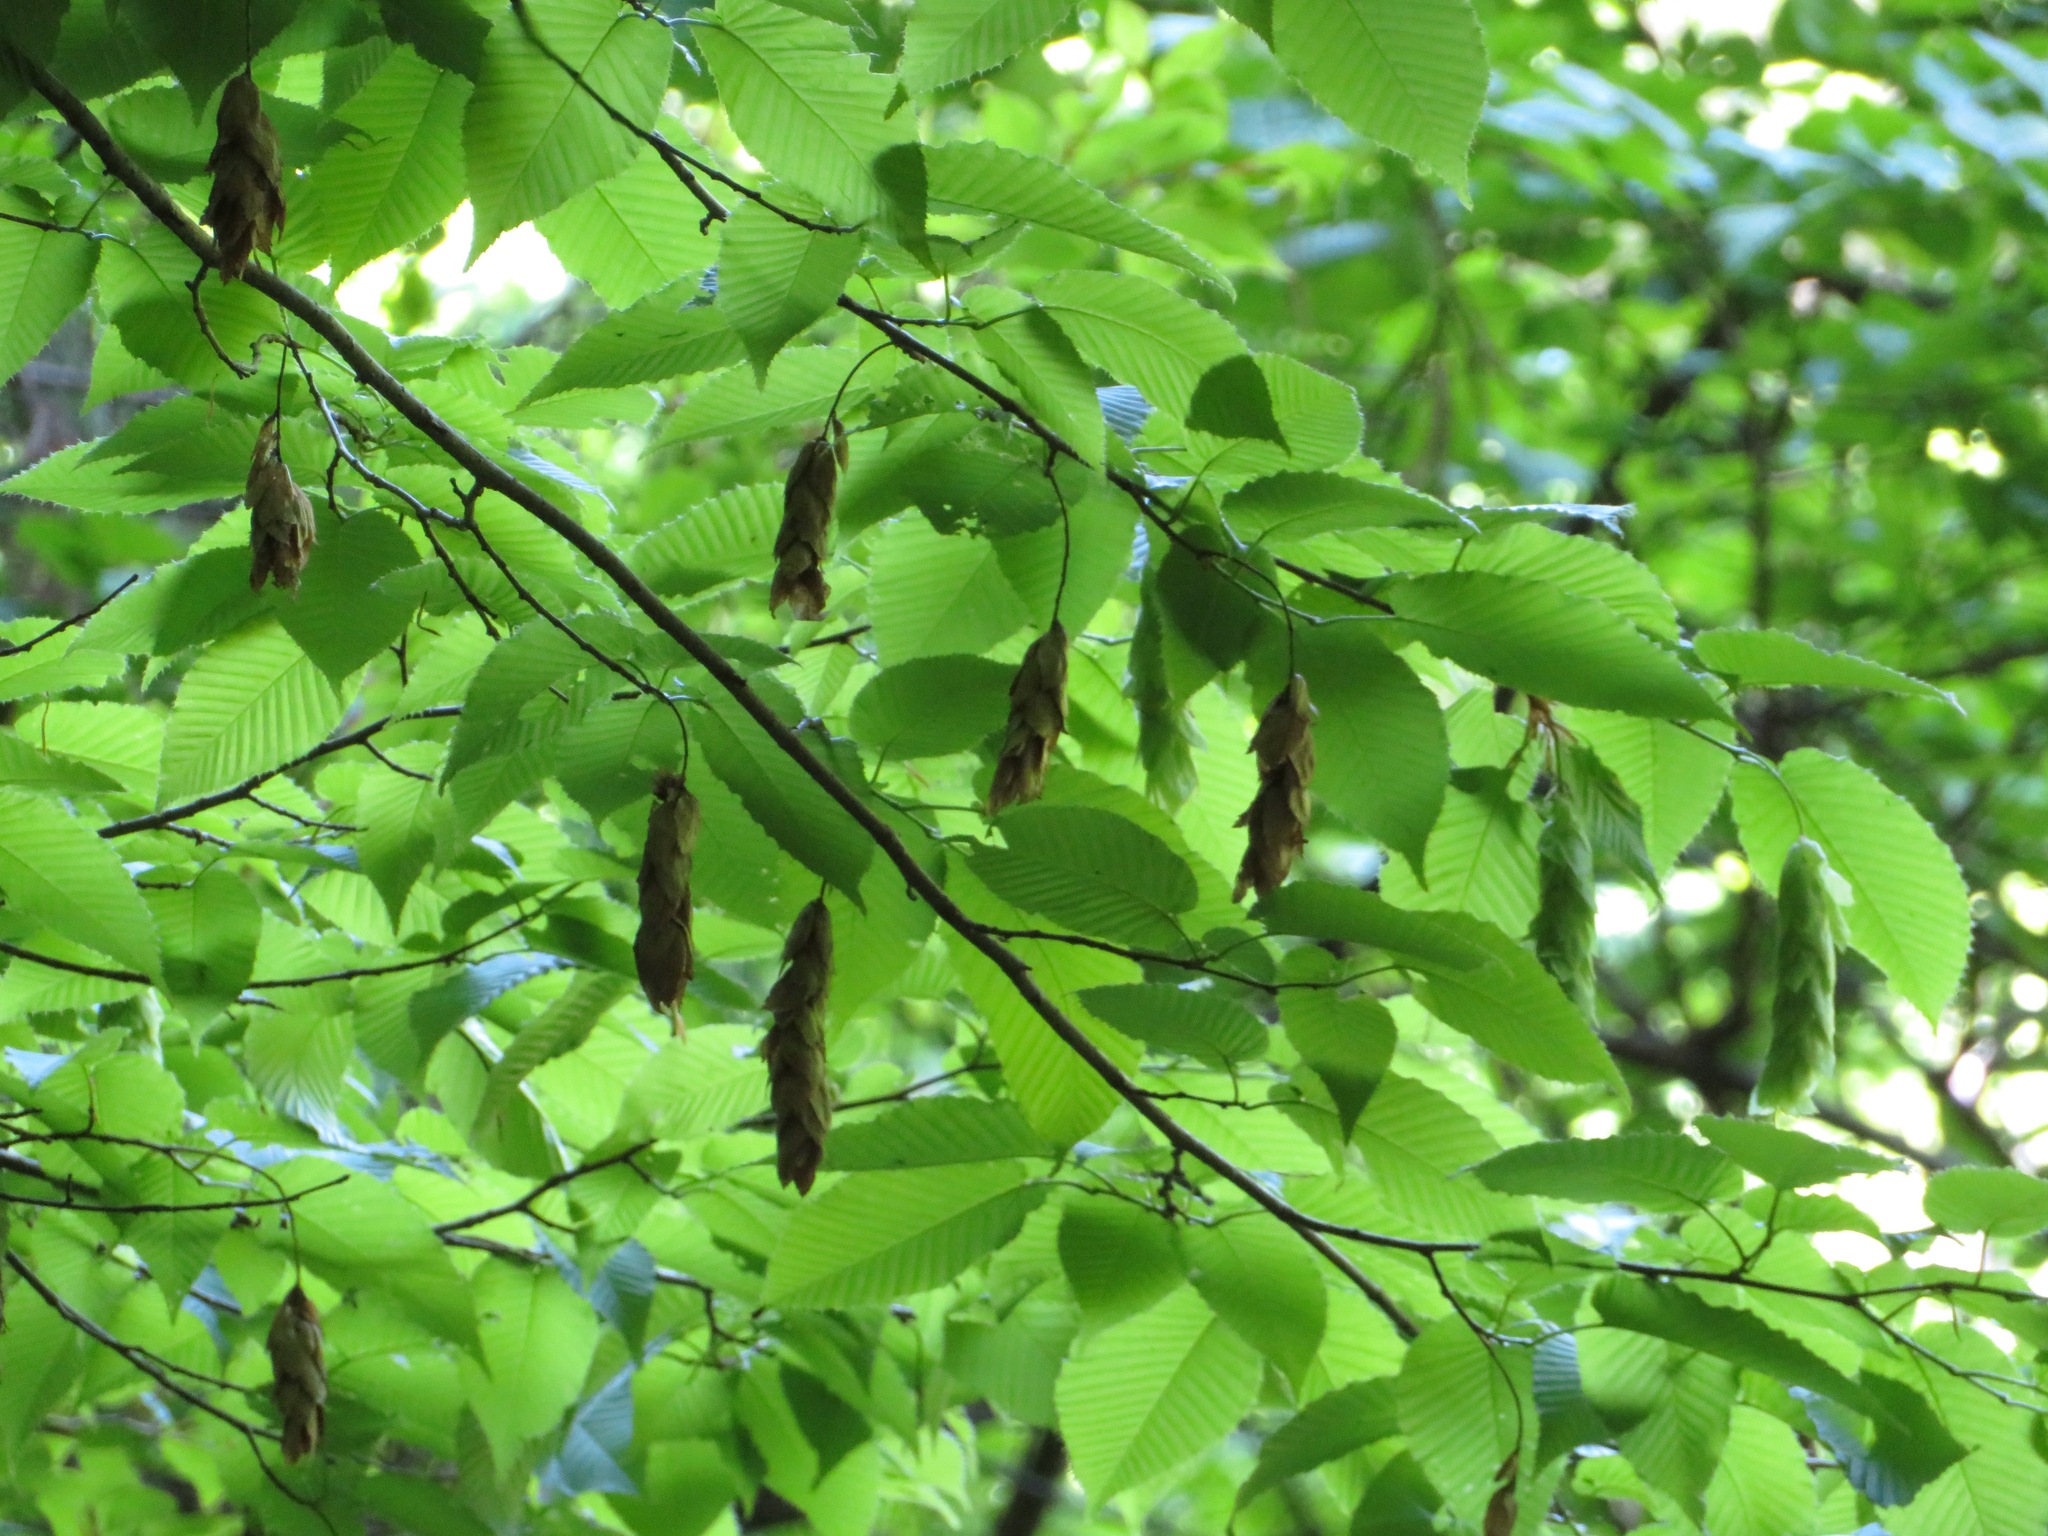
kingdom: Plantae
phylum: Tracheophyta
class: Magnoliopsida
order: Fagales
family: Betulaceae
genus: Carpinus
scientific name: Carpinus cordata
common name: Sawa hornbeam
